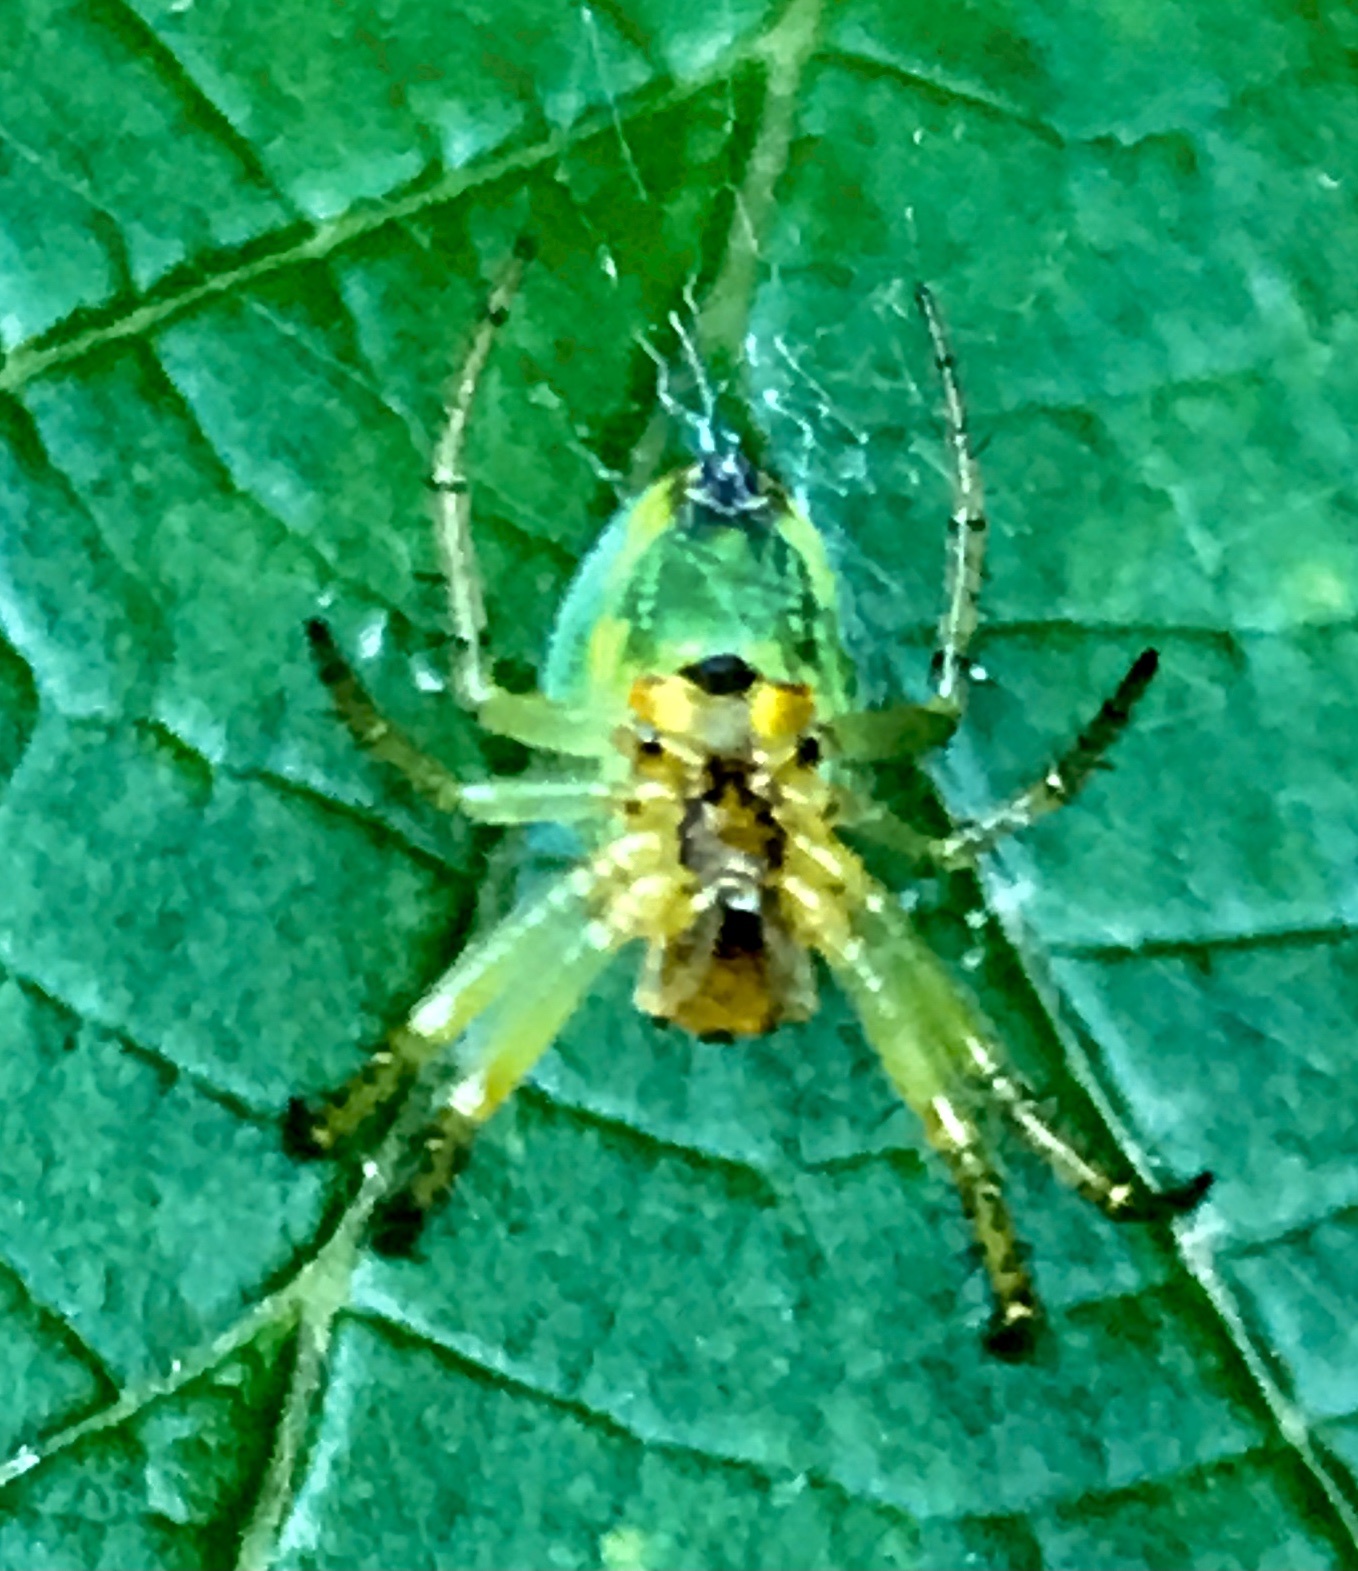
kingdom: Animalia
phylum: Arthropoda
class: Arachnida
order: Araneae
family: Araneidae
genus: Araniella
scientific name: Araniella
